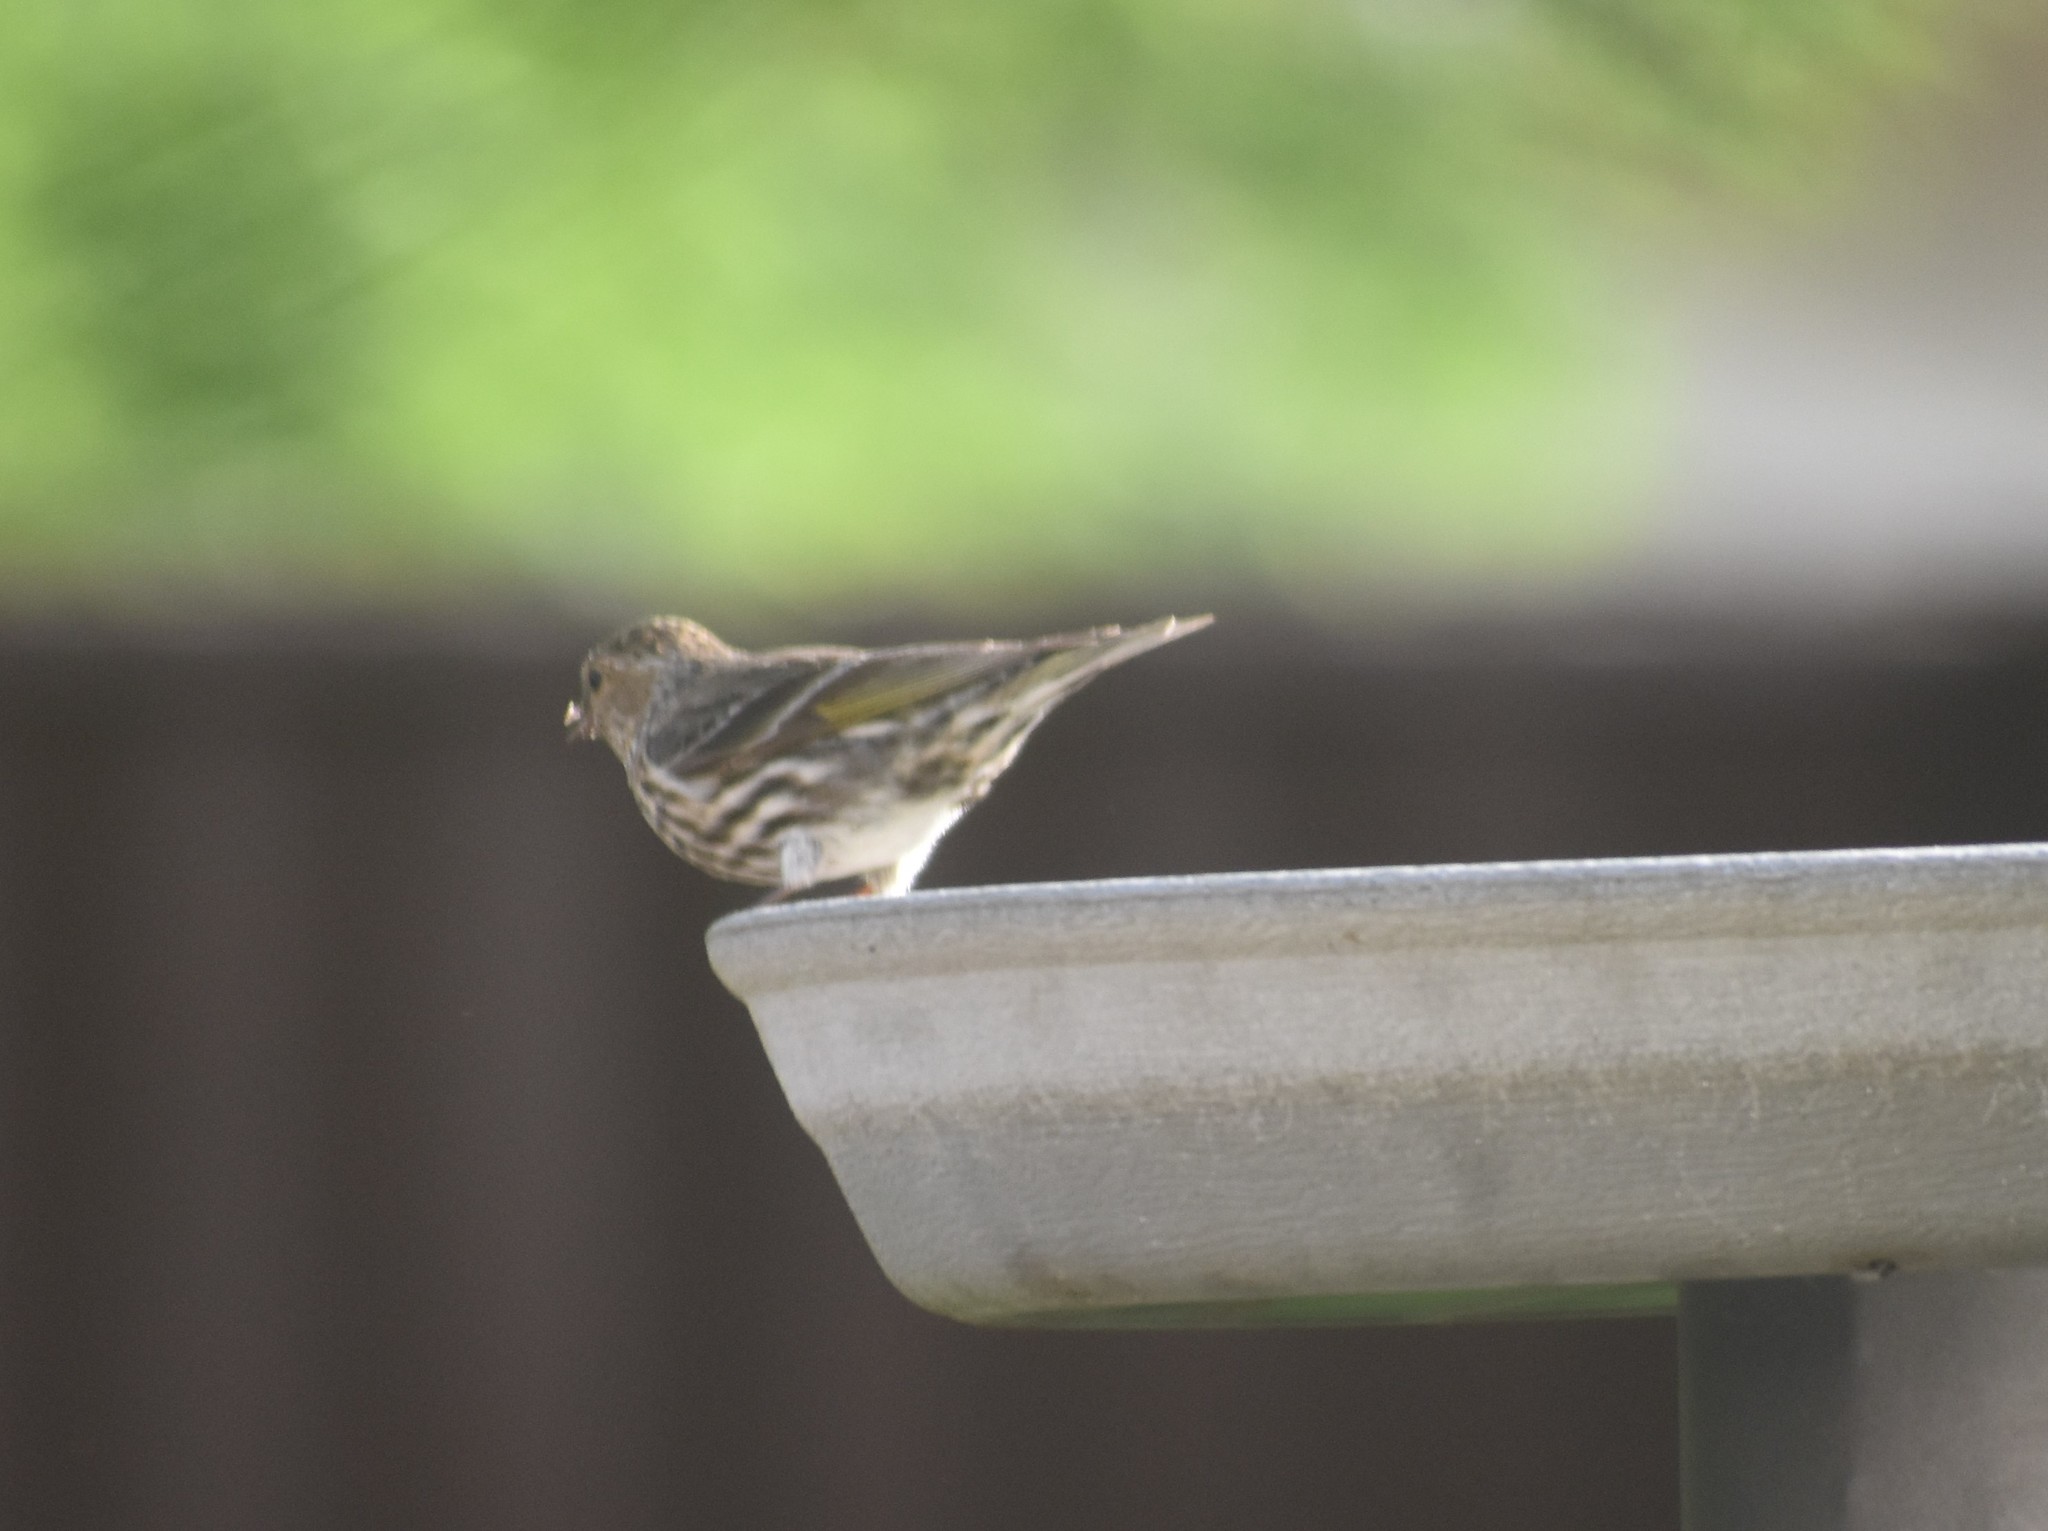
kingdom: Animalia
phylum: Chordata
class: Aves
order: Passeriformes
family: Fringillidae
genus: Spinus
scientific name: Spinus pinus
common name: Pine siskin
